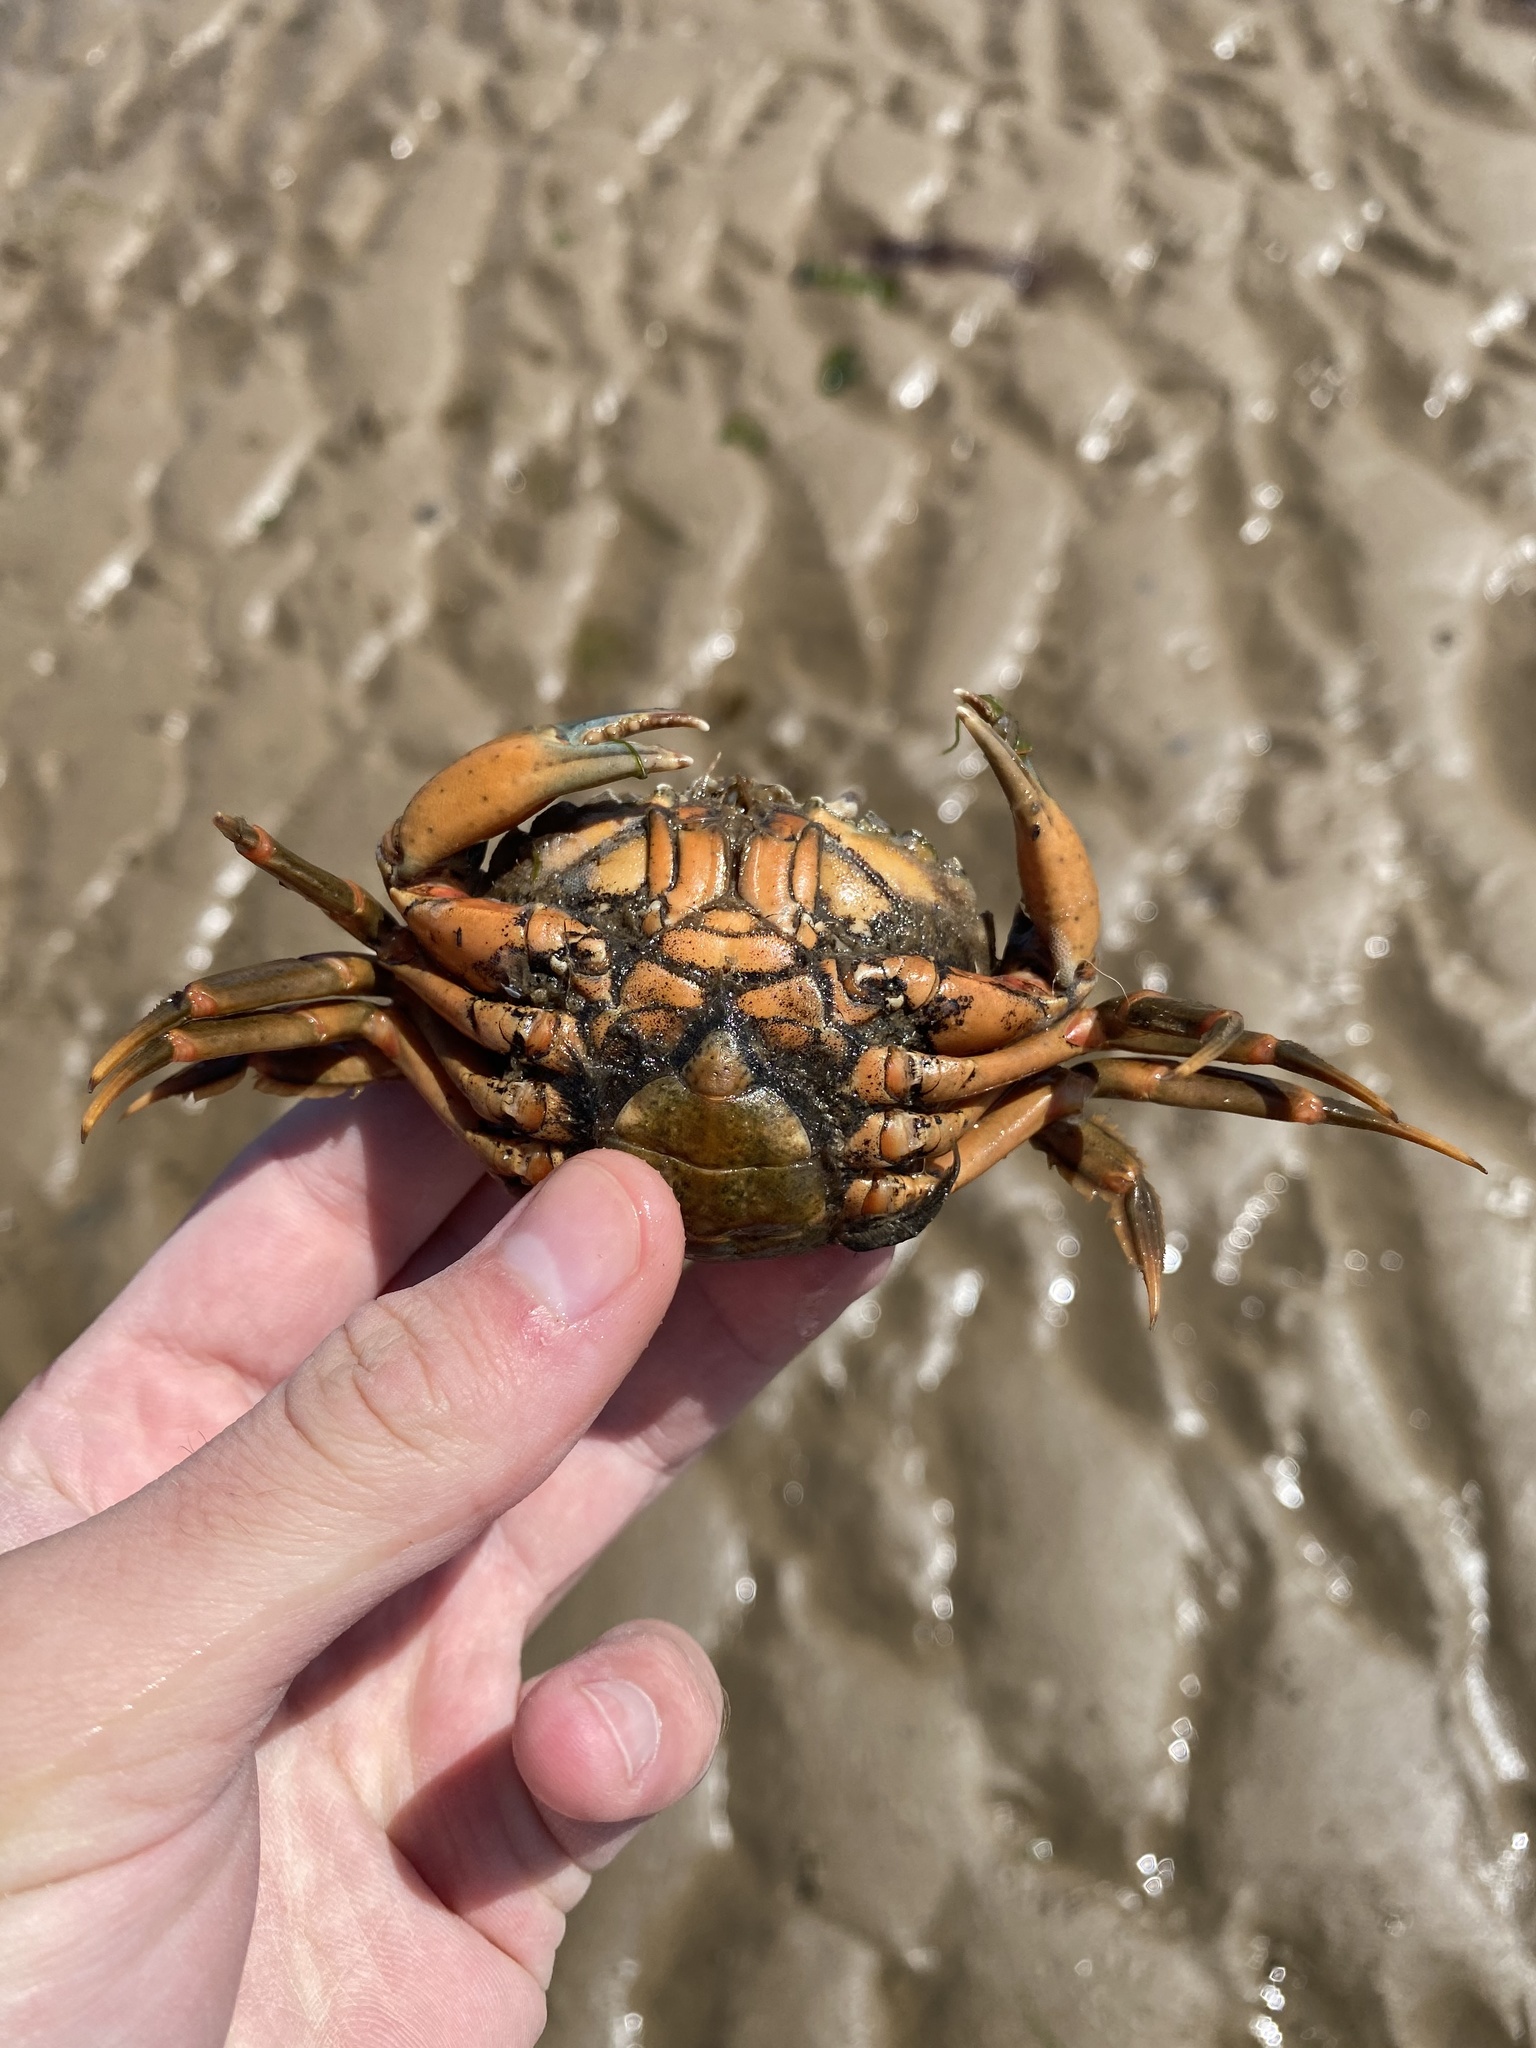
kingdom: Animalia
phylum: Arthropoda
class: Malacostraca
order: Decapoda
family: Carcinidae
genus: Carcinus
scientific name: Carcinus maenas
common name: European green crab
